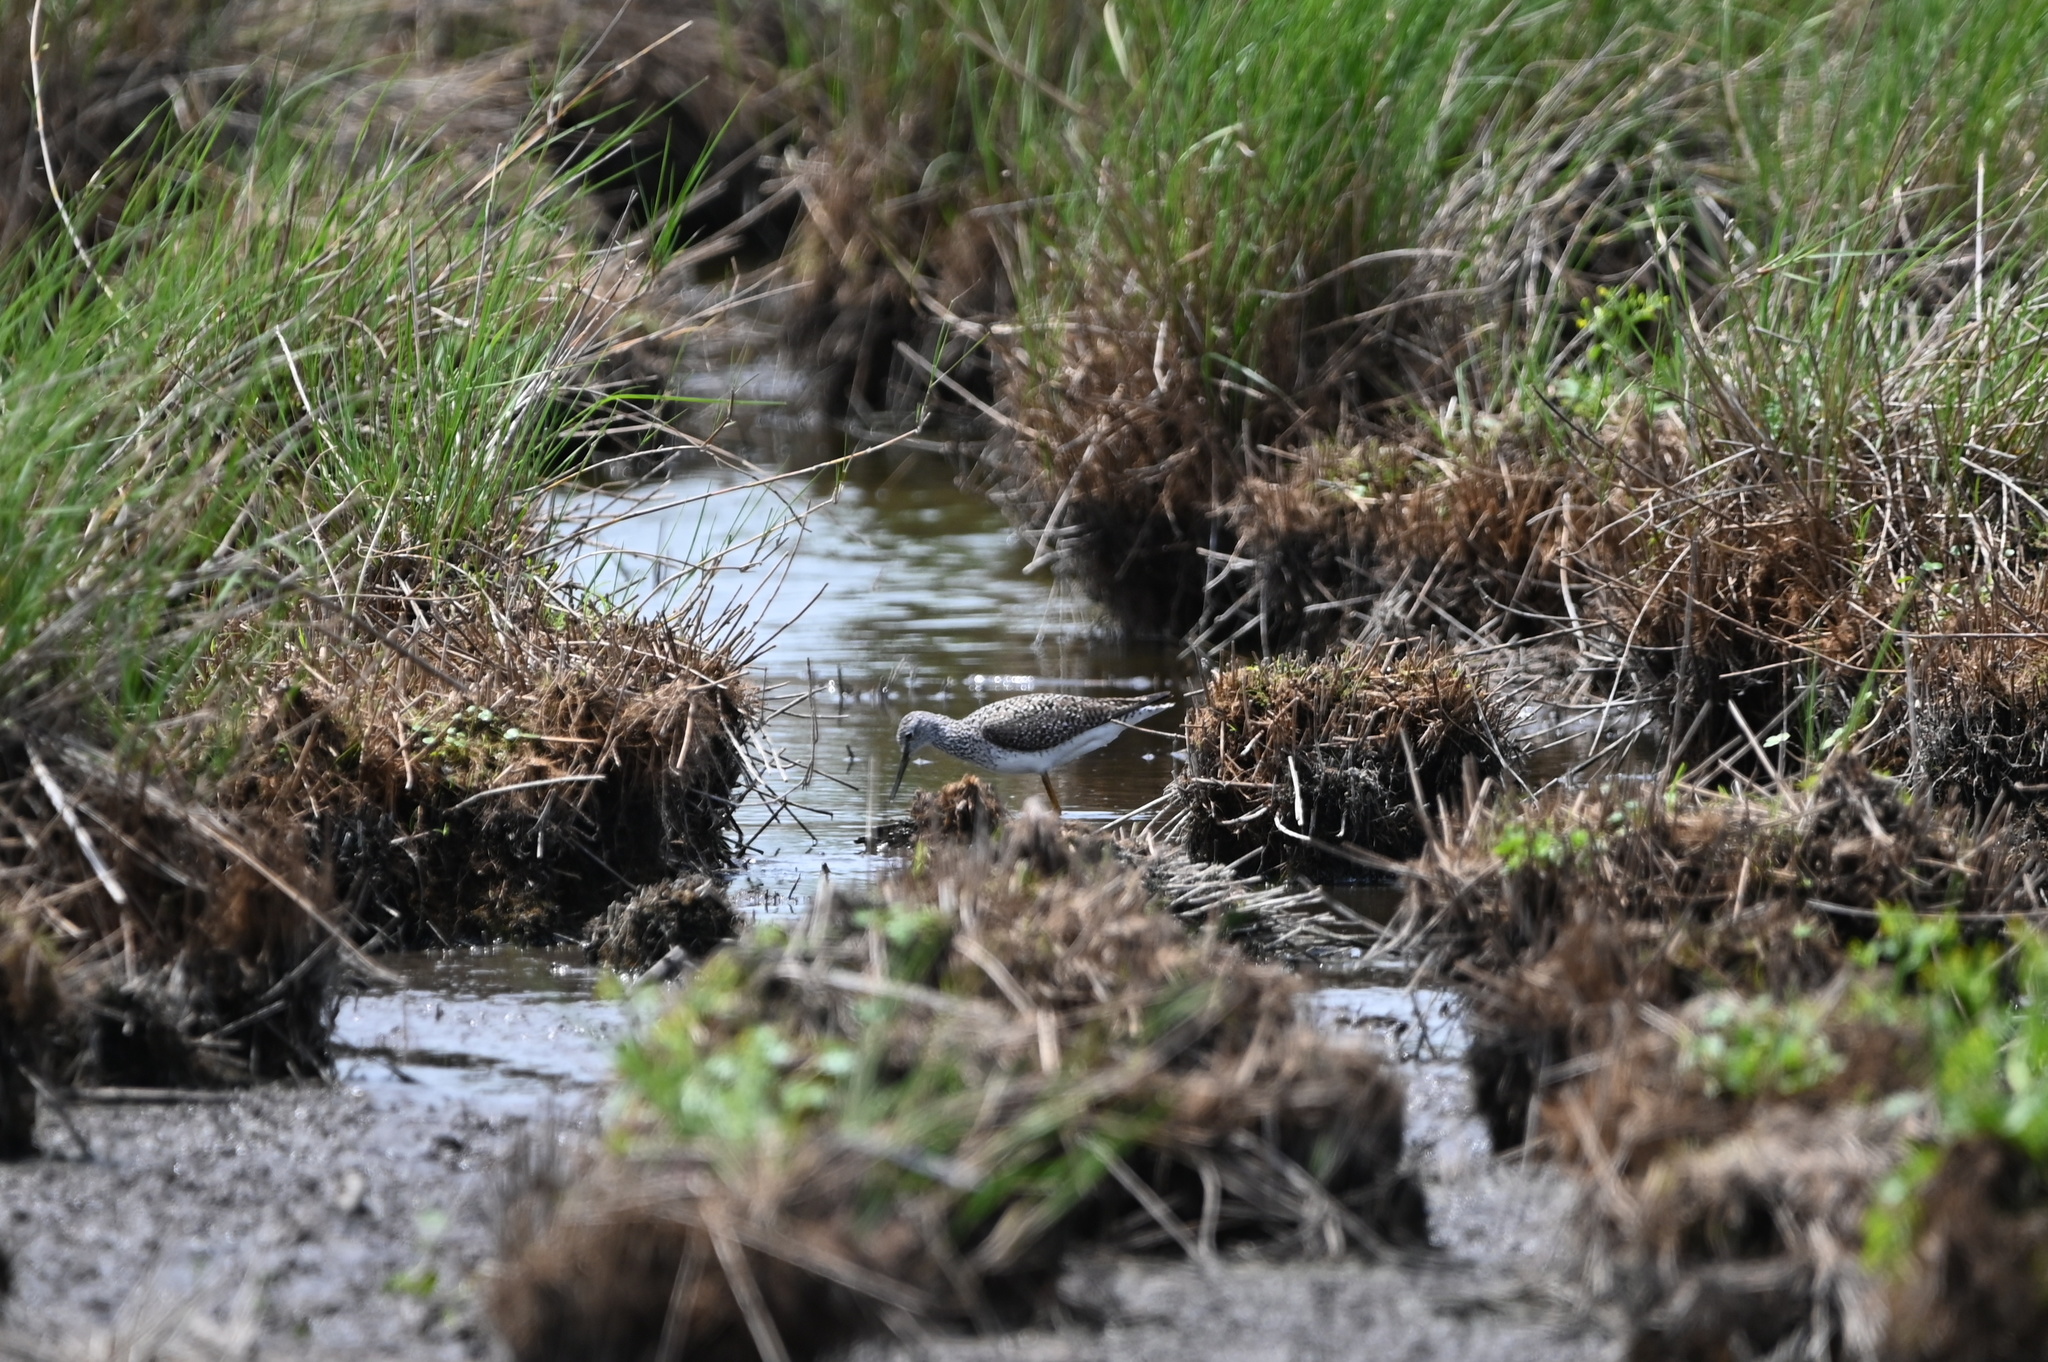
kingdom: Animalia
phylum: Chordata
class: Aves
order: Charadriiformes
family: Scolopacidae
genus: Tringa
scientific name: Tringa flavipes
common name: Lesser yellowlegs
